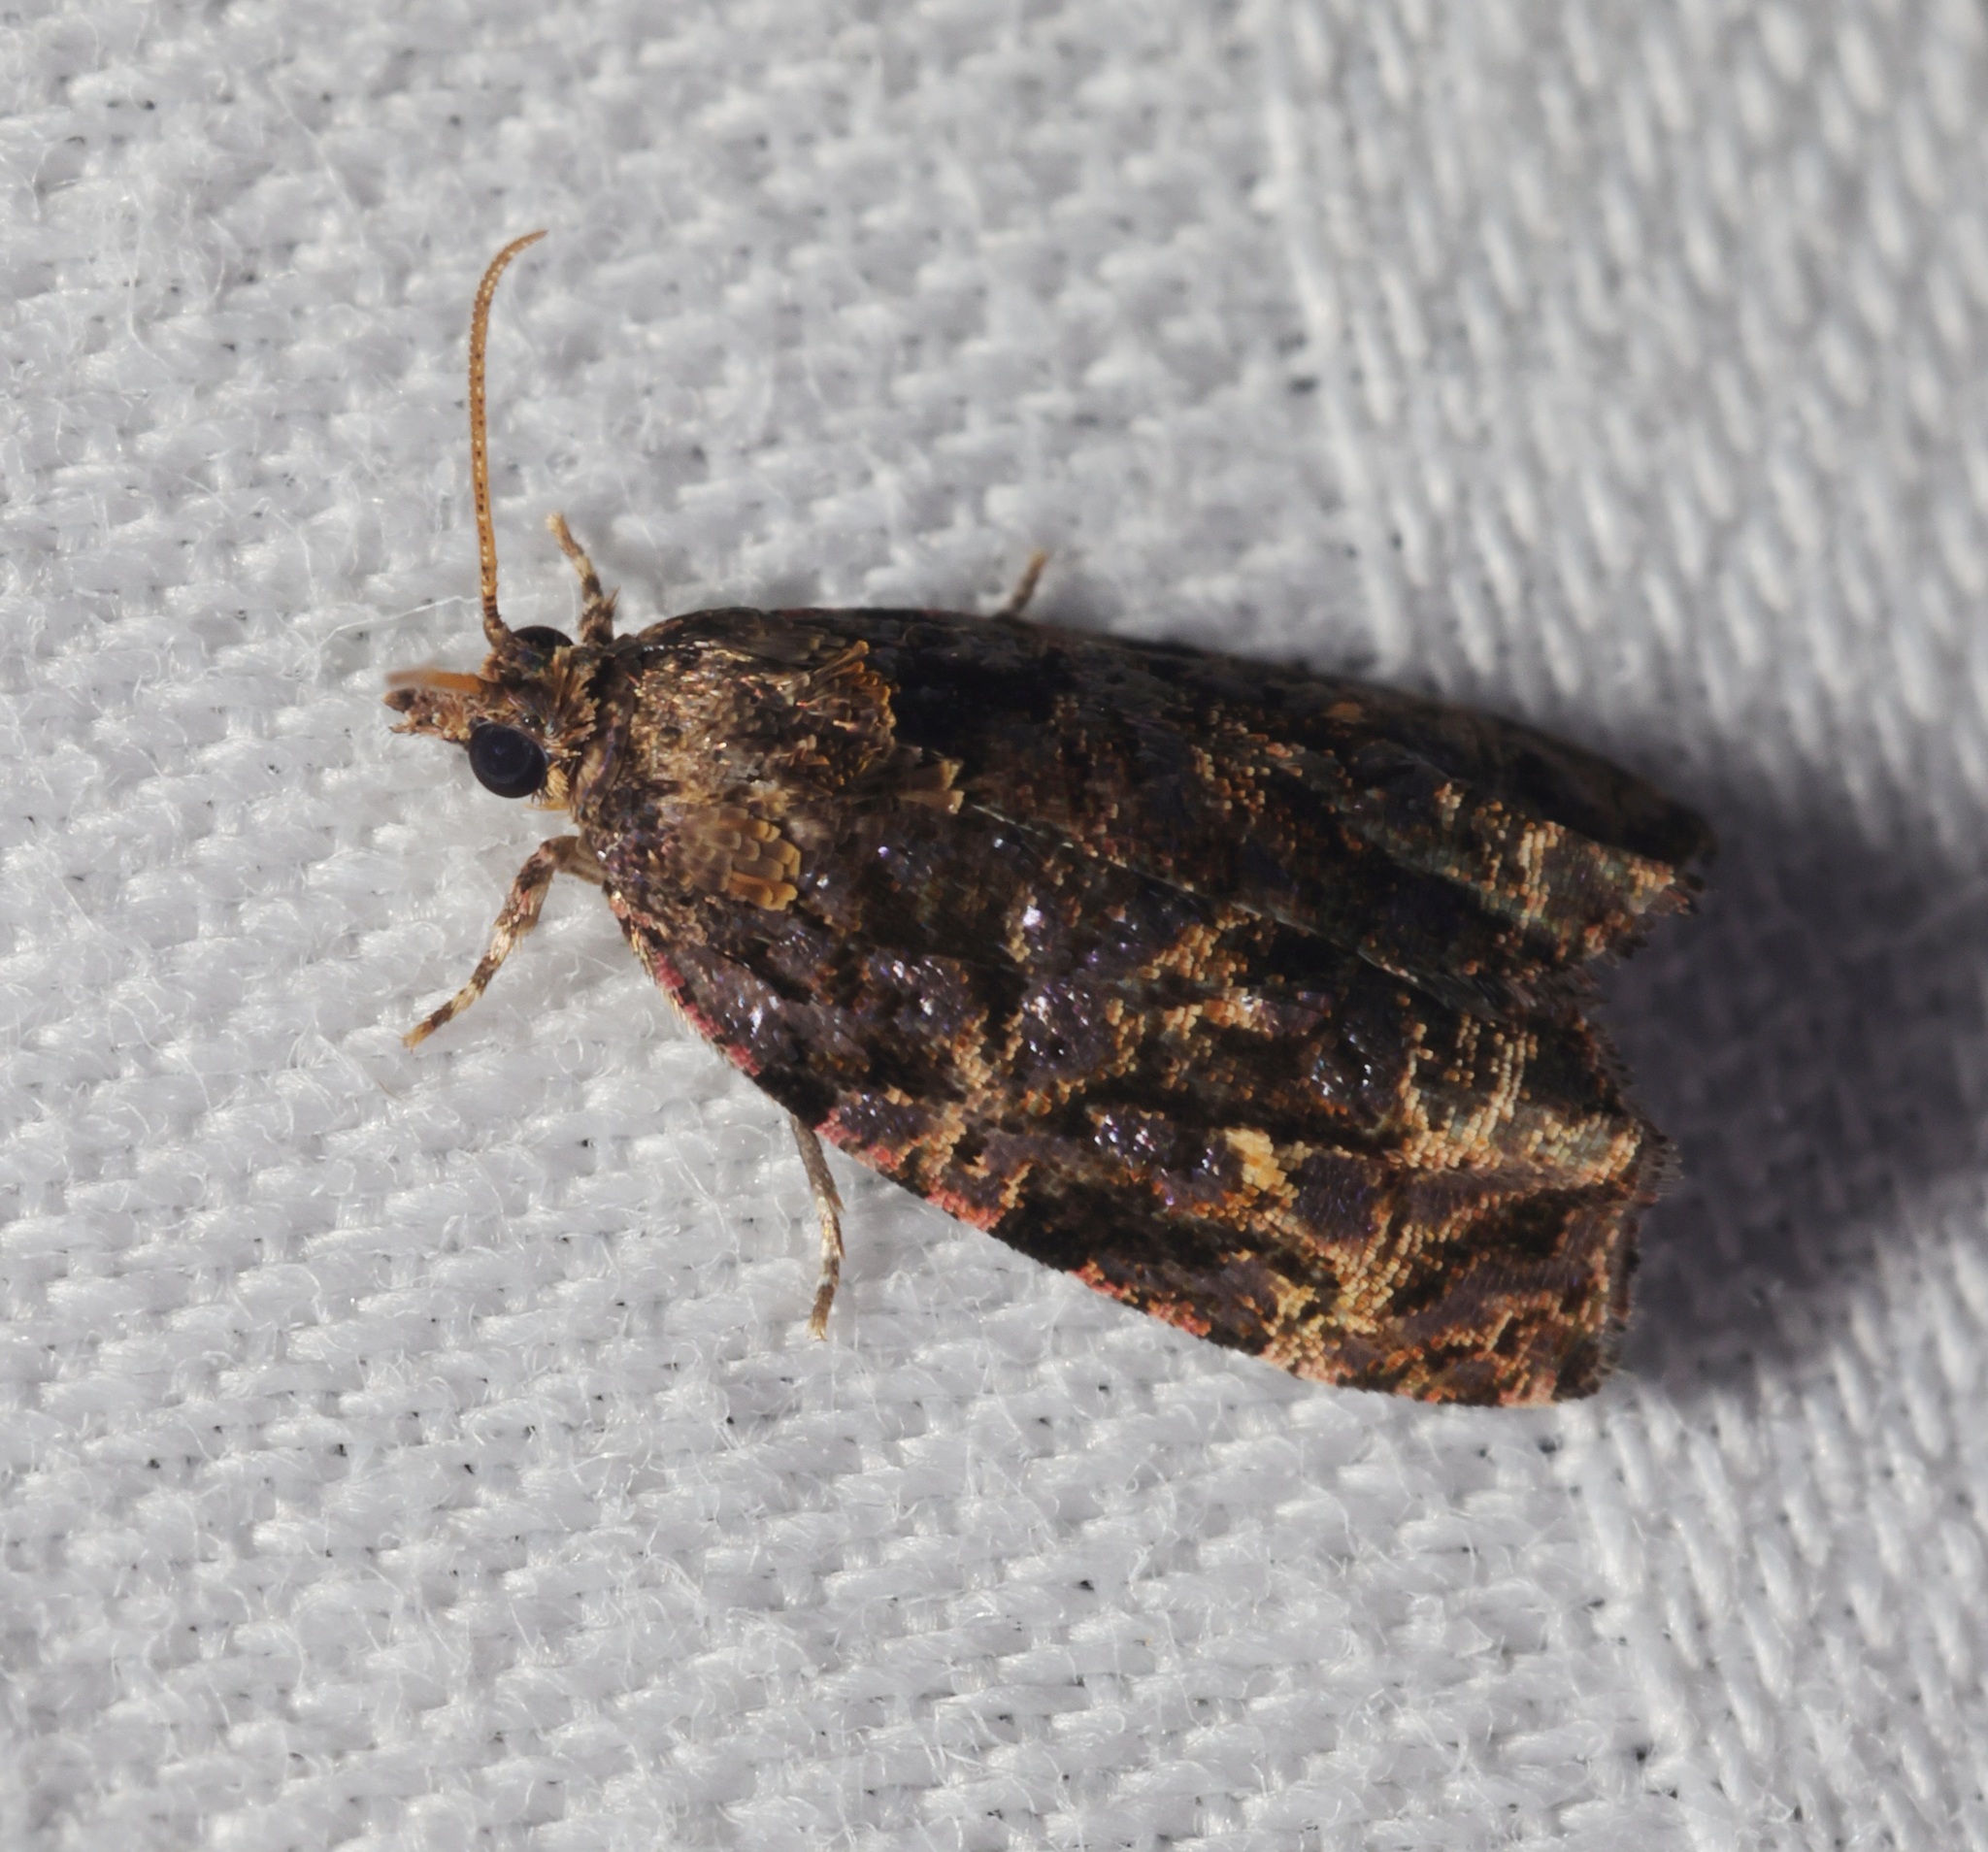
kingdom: Animalia
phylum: Arthropoda
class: Insecta
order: Lepidoptera
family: Tortricidae
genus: Gatesclarkeana
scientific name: Gatesclarkeana idia
